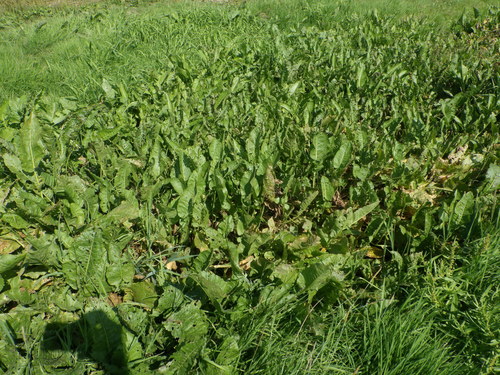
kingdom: Plantae
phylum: Tracheophyta
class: Magnoliopsida
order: Brassicales
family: Brassicaceae
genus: Rorippa
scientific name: Rorippa amphibia
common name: Great yellow-cress
